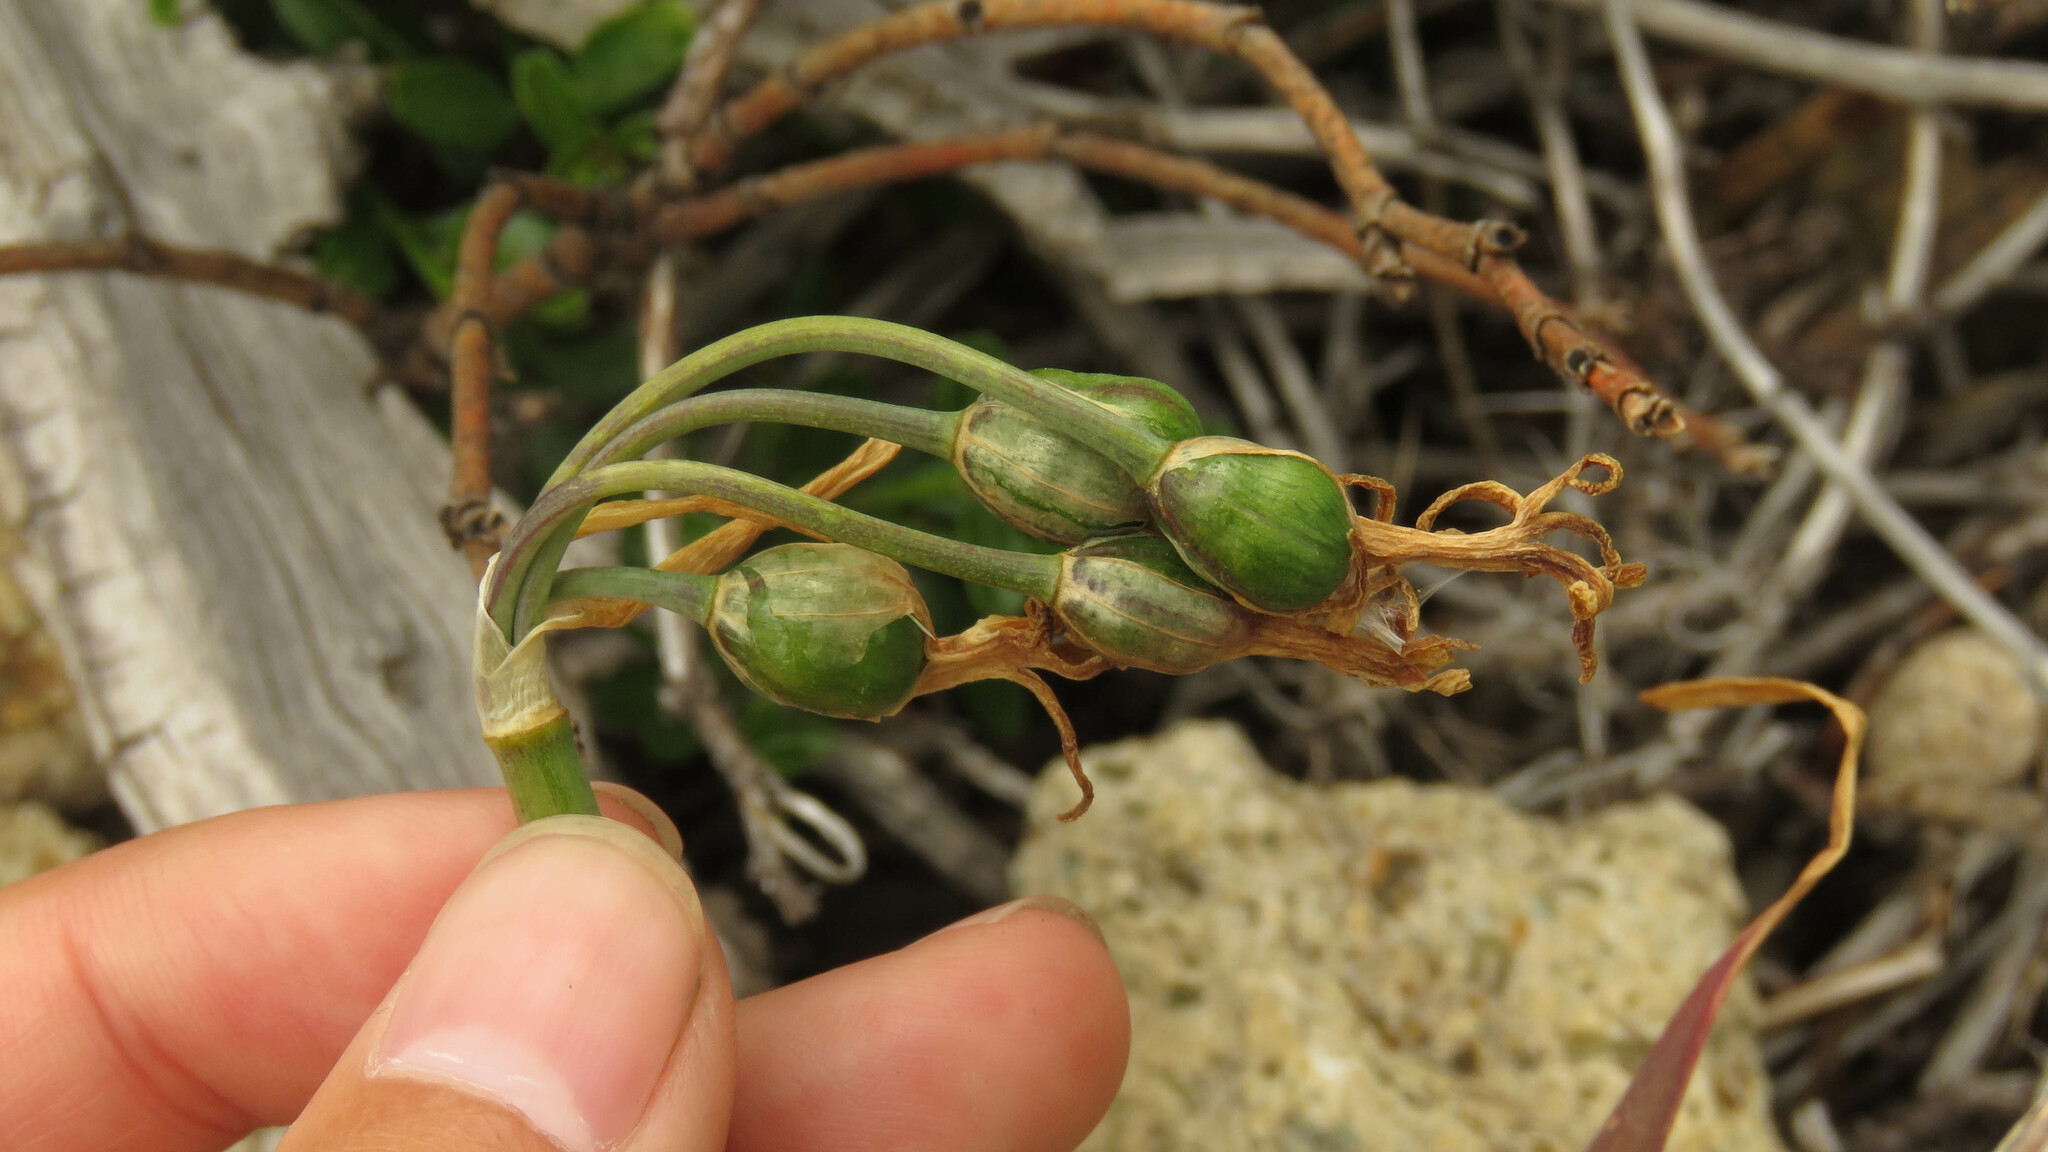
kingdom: Plantae
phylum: Tracheophyta
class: Liliopsida
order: Asparagales
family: Amaryllidaceae
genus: Tristagma
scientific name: Tristagma nivale
